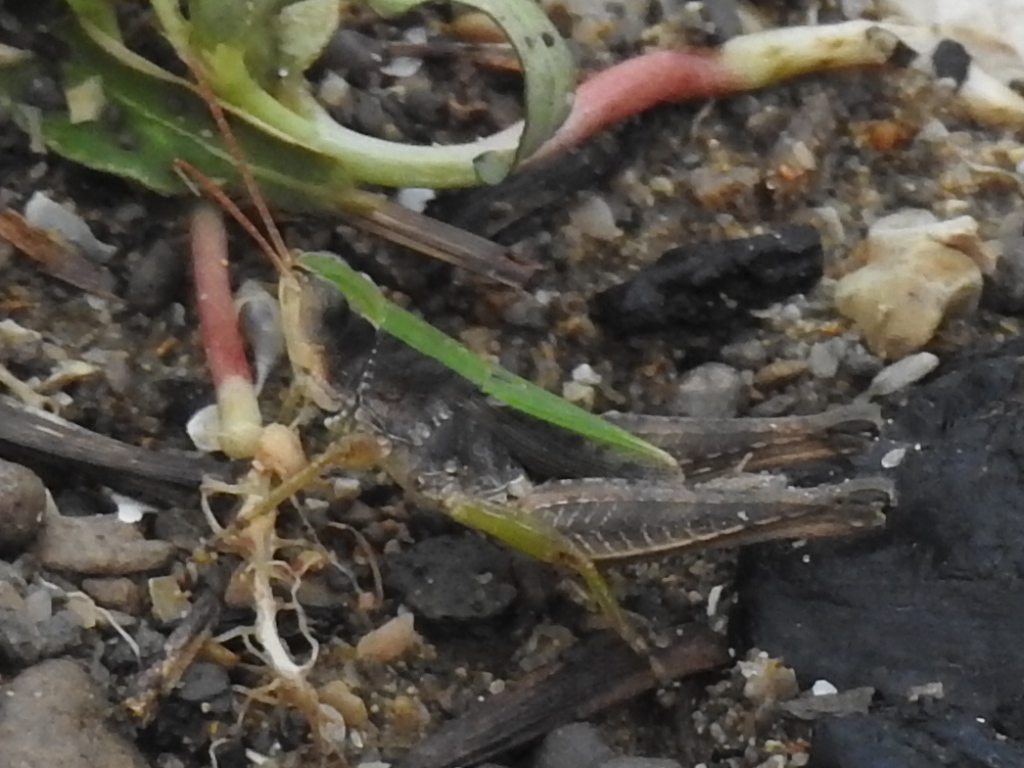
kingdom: Animalia
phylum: Arthropoda
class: Insecta
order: Orthoptera
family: Acrididae
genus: Dichromorpha
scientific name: Dichromorpha viridis
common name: Short-winged green grasshopper
